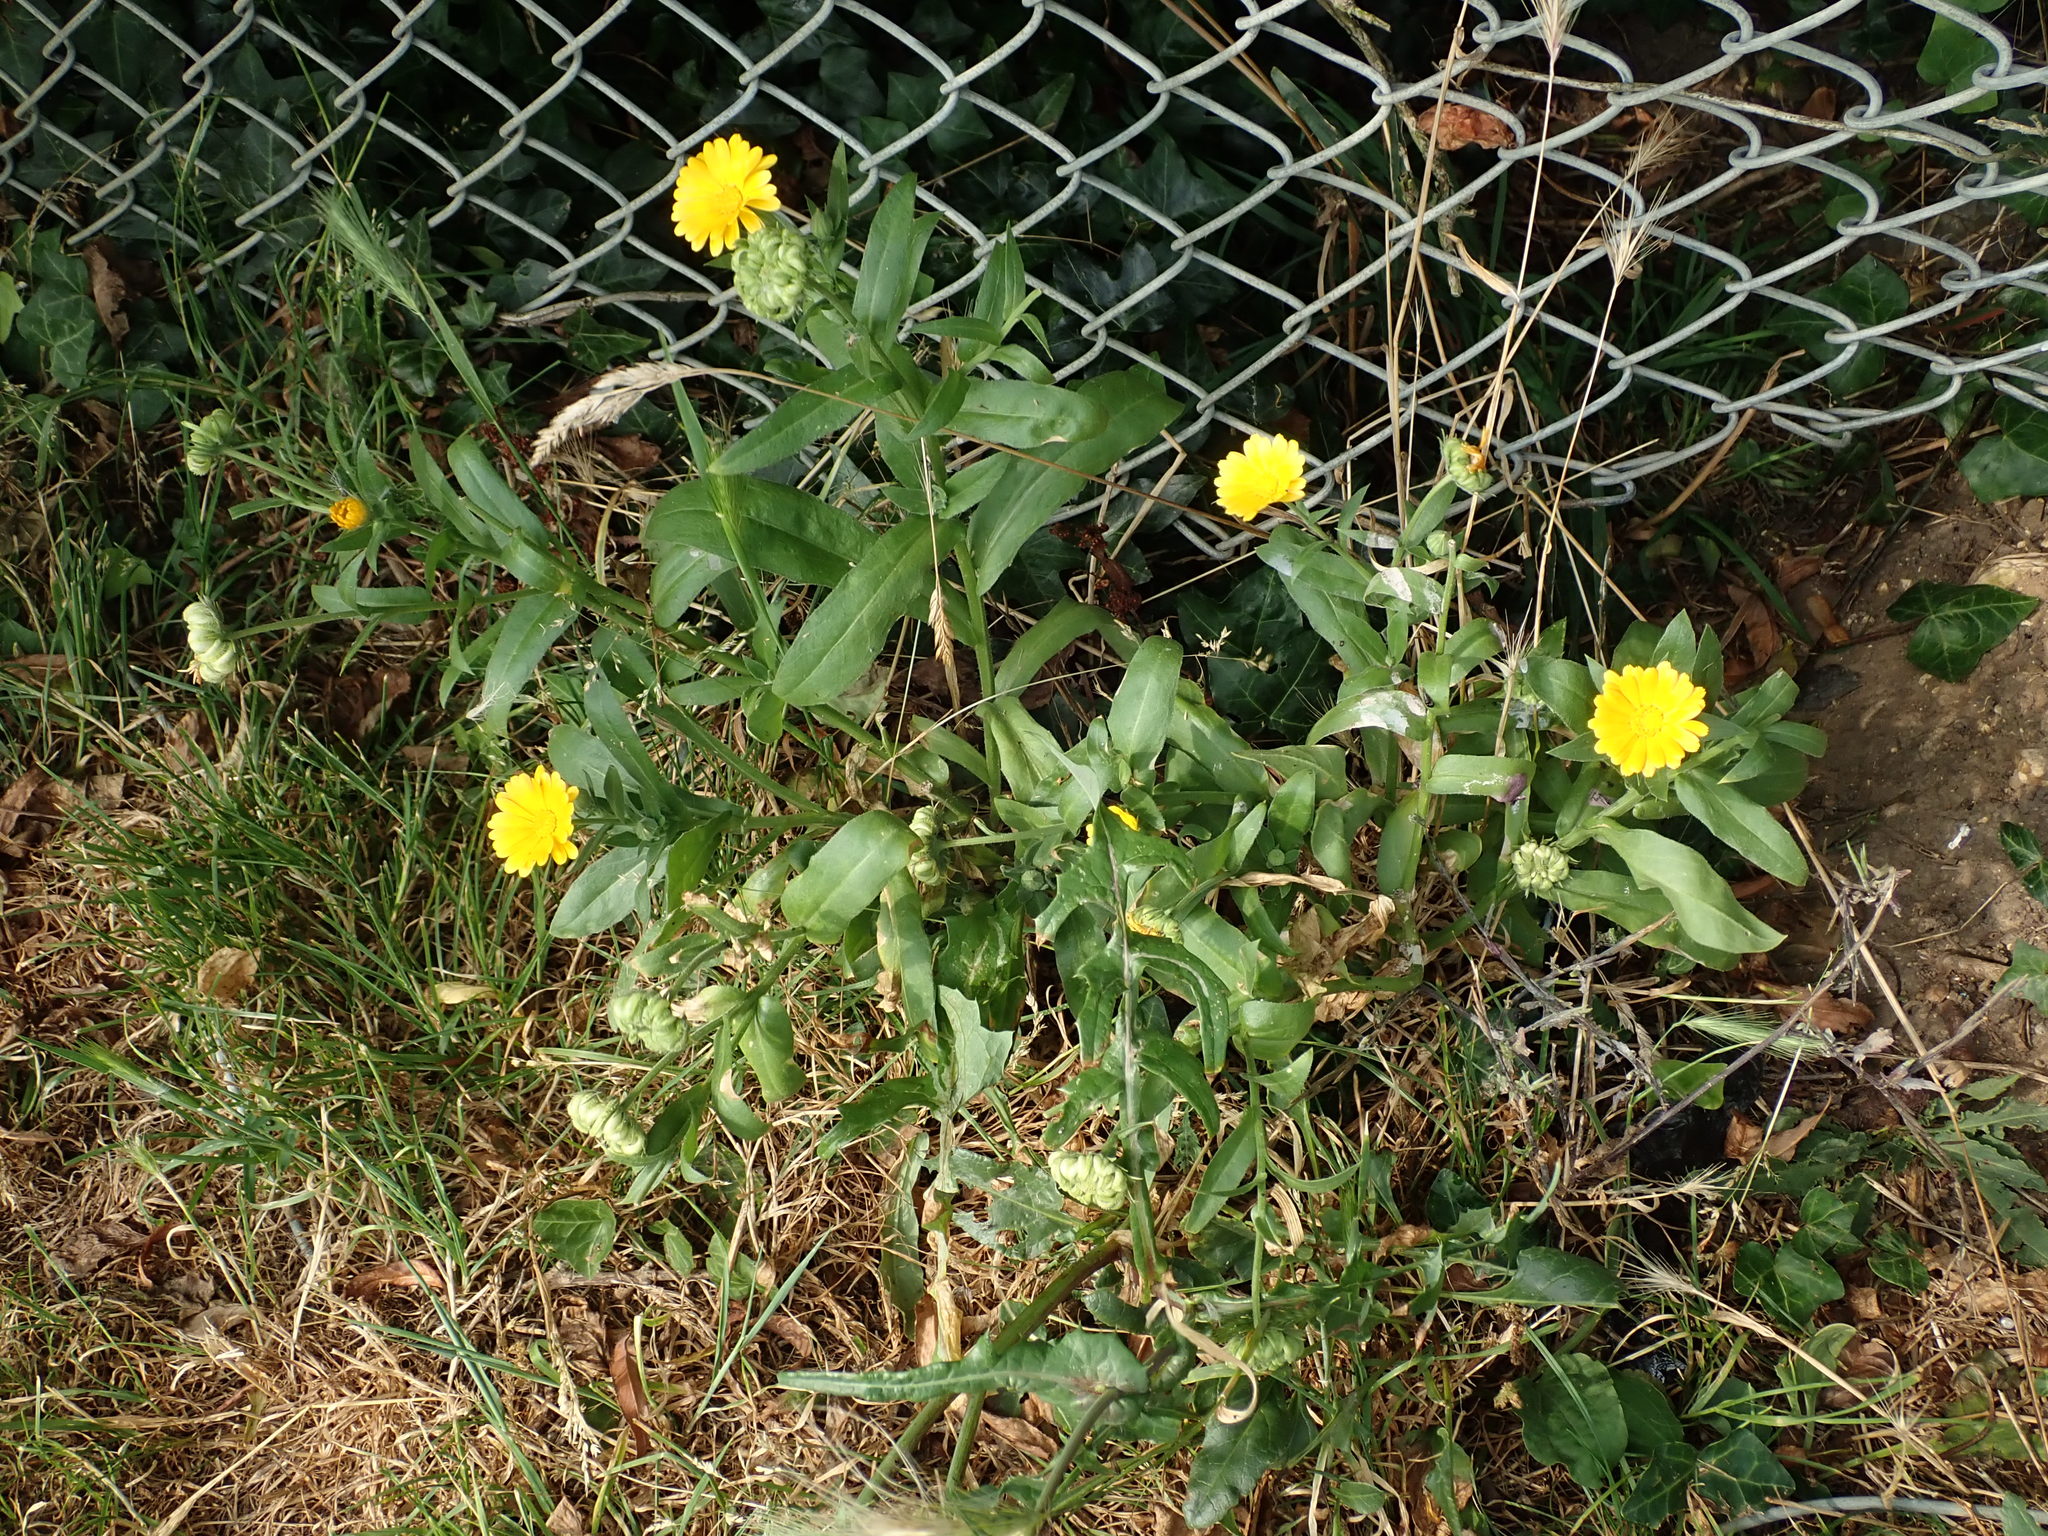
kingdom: Plantae
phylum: Tracheophyta
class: Magnoliopsida
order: Asterales
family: Asteraceae
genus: Calendula
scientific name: Calendula officinalis
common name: Pot marigold
